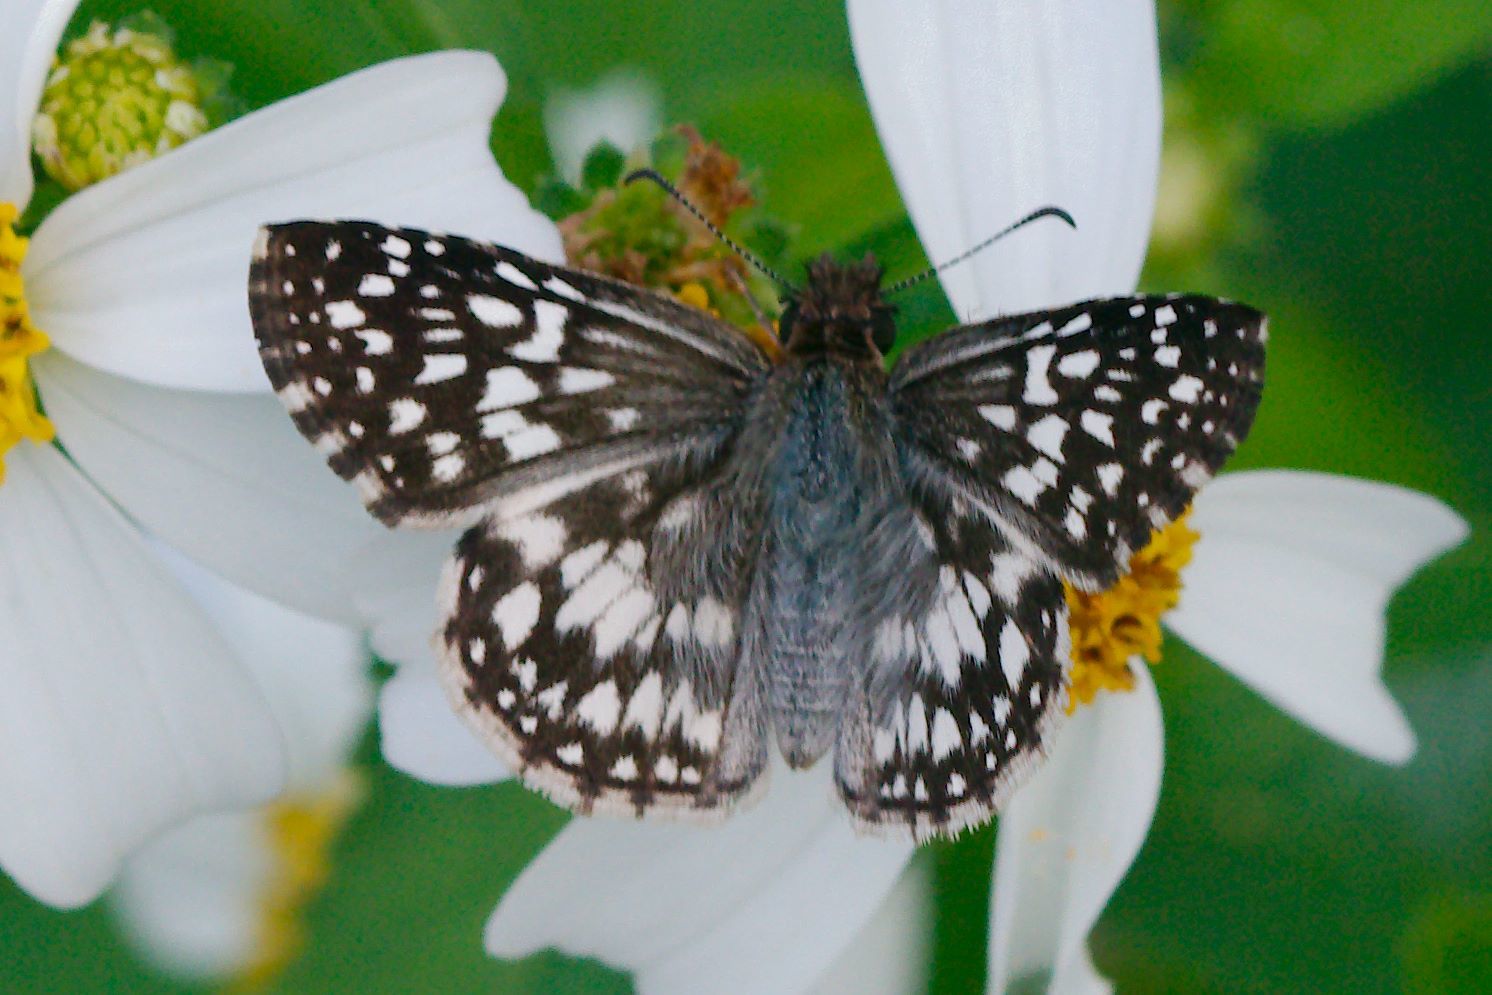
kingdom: Animalia
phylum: Arthropoda
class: Insecta
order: Lepidoptera
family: Hesperiidae
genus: Pyrgus
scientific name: Pyrgus oileus
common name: Tropical checkered-skipper
